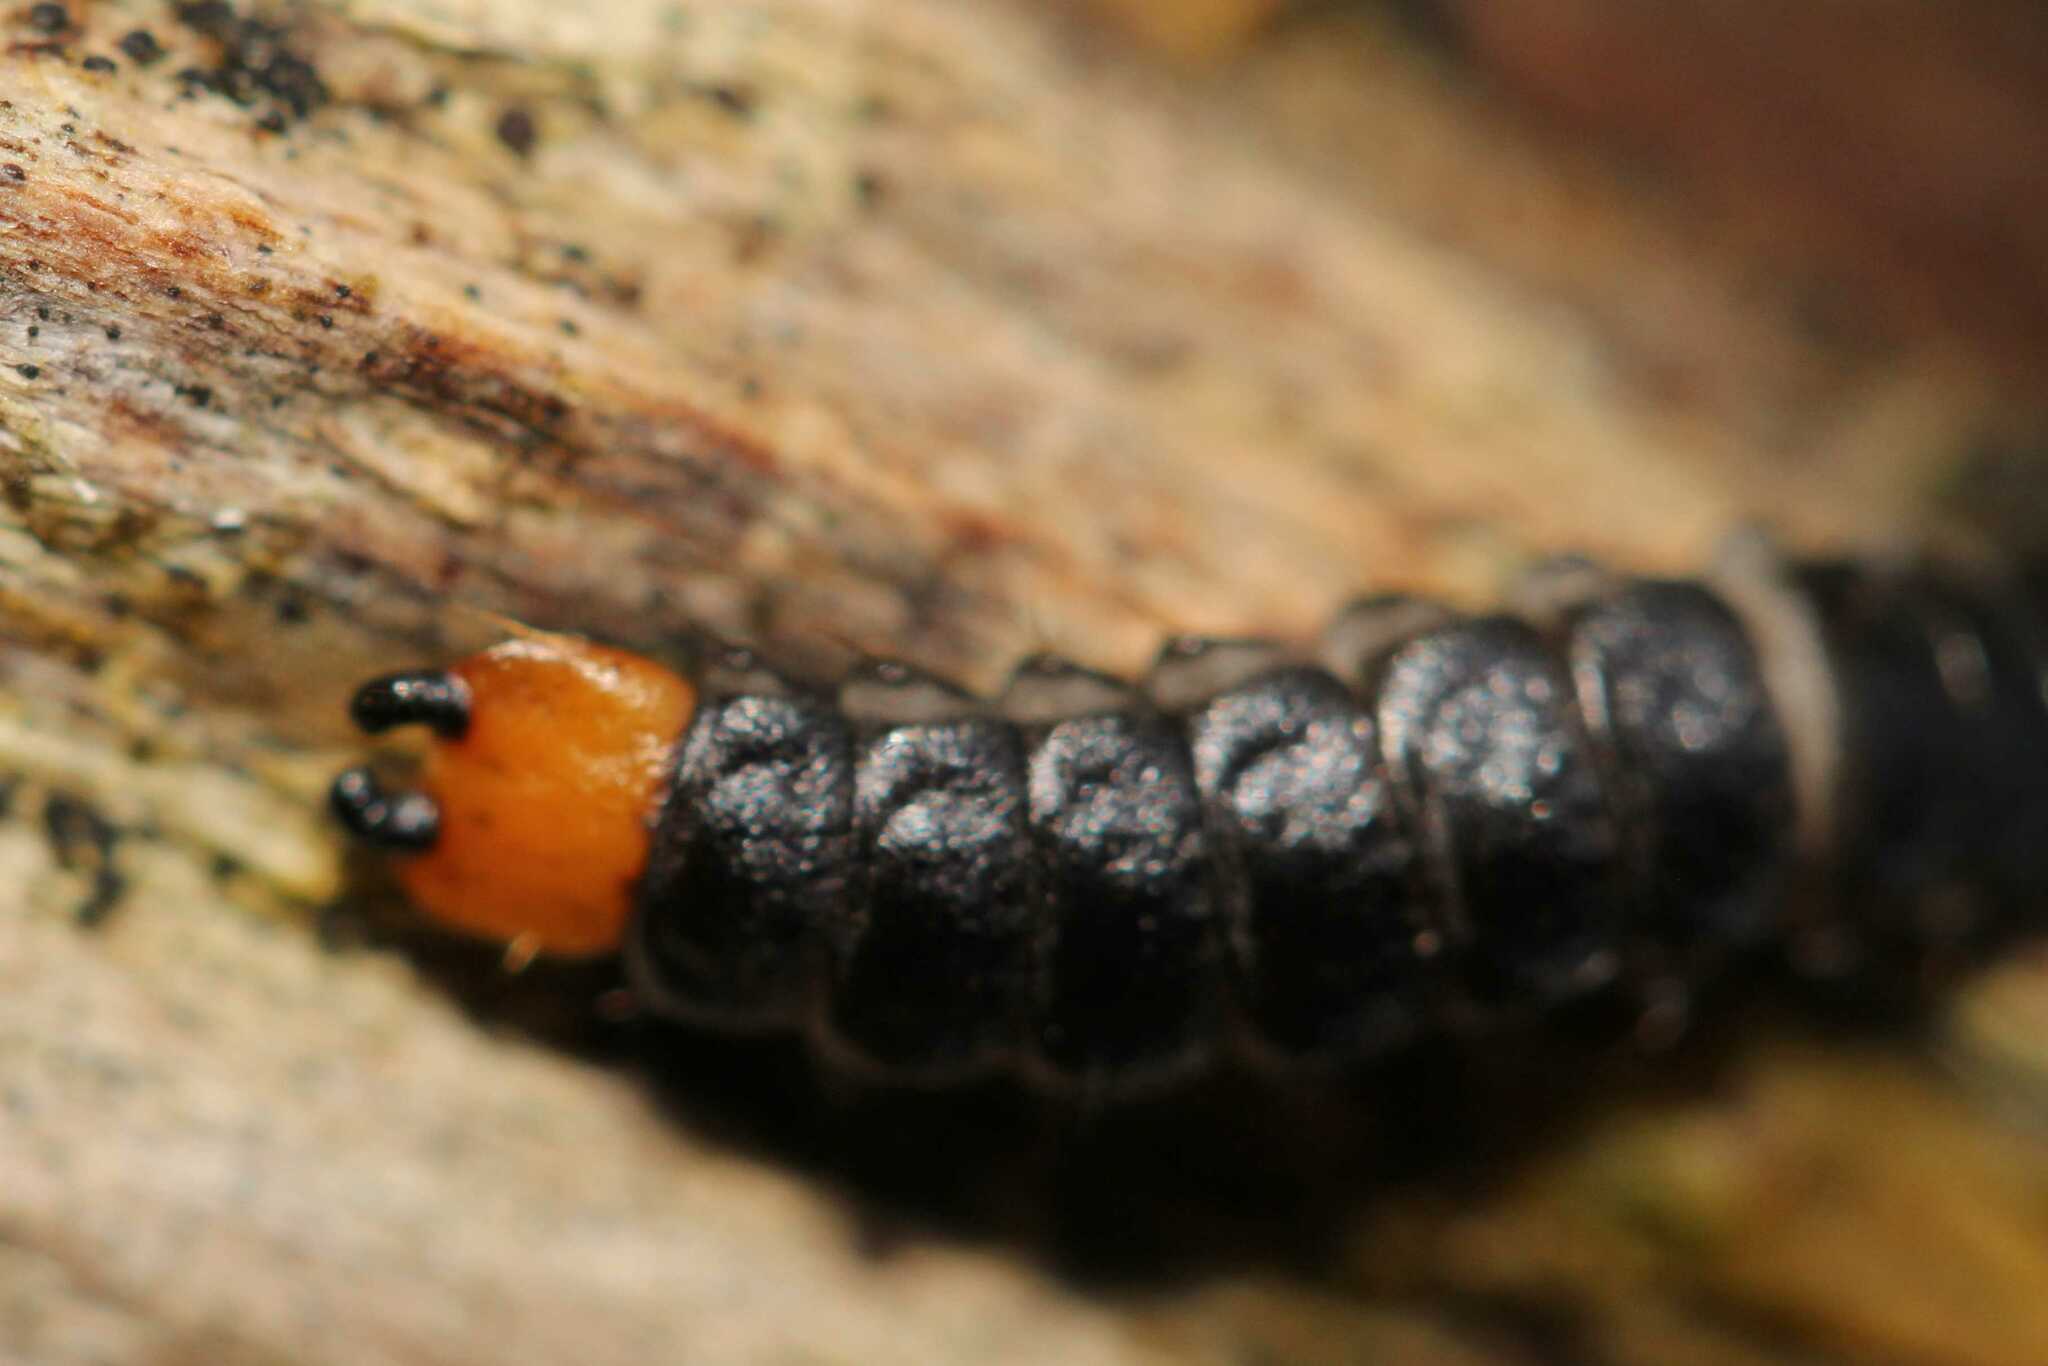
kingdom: Animalia
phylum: Arthropoda
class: Insecta
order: Coleoptera
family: Lycidae
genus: Lygistopterus
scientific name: Lygistopterus sanguineus
